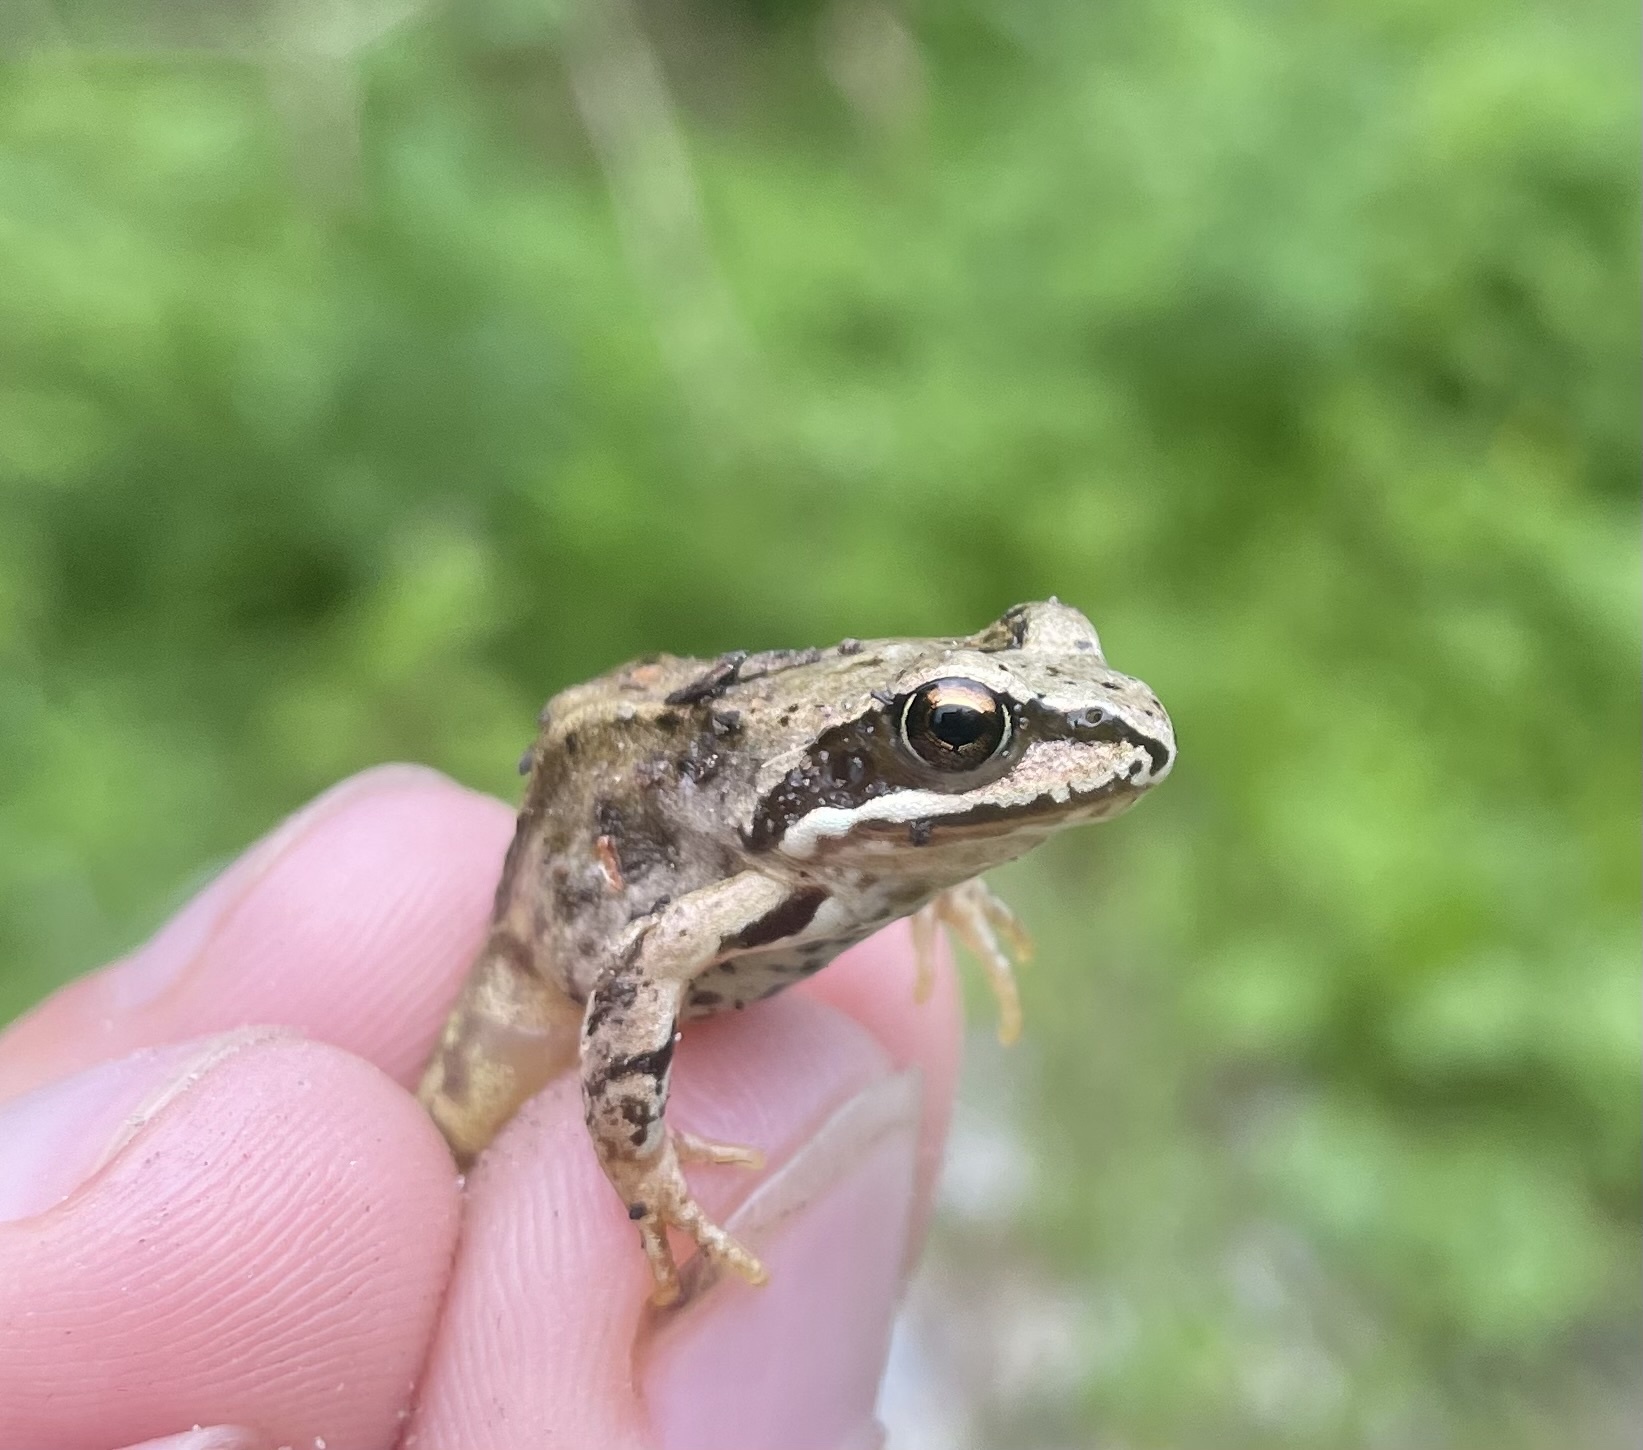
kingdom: Animalia
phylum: Chordata
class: Amphibia
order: Anura
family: Ranidae
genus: Rana
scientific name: Rana temporaria
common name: Common frog
